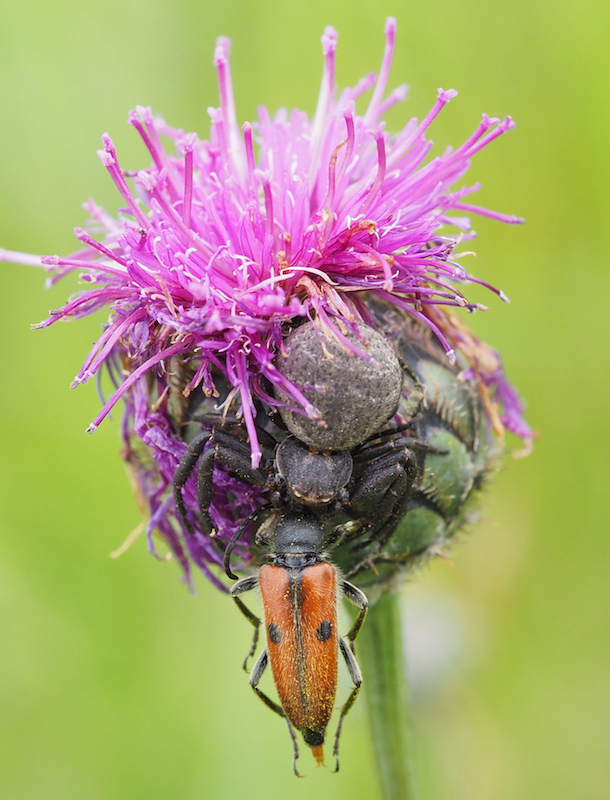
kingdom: Animalia
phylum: Arthropoda
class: Arachnida
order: Araneae
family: Thomisidae
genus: Xysticus
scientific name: Xysticus acerbus
